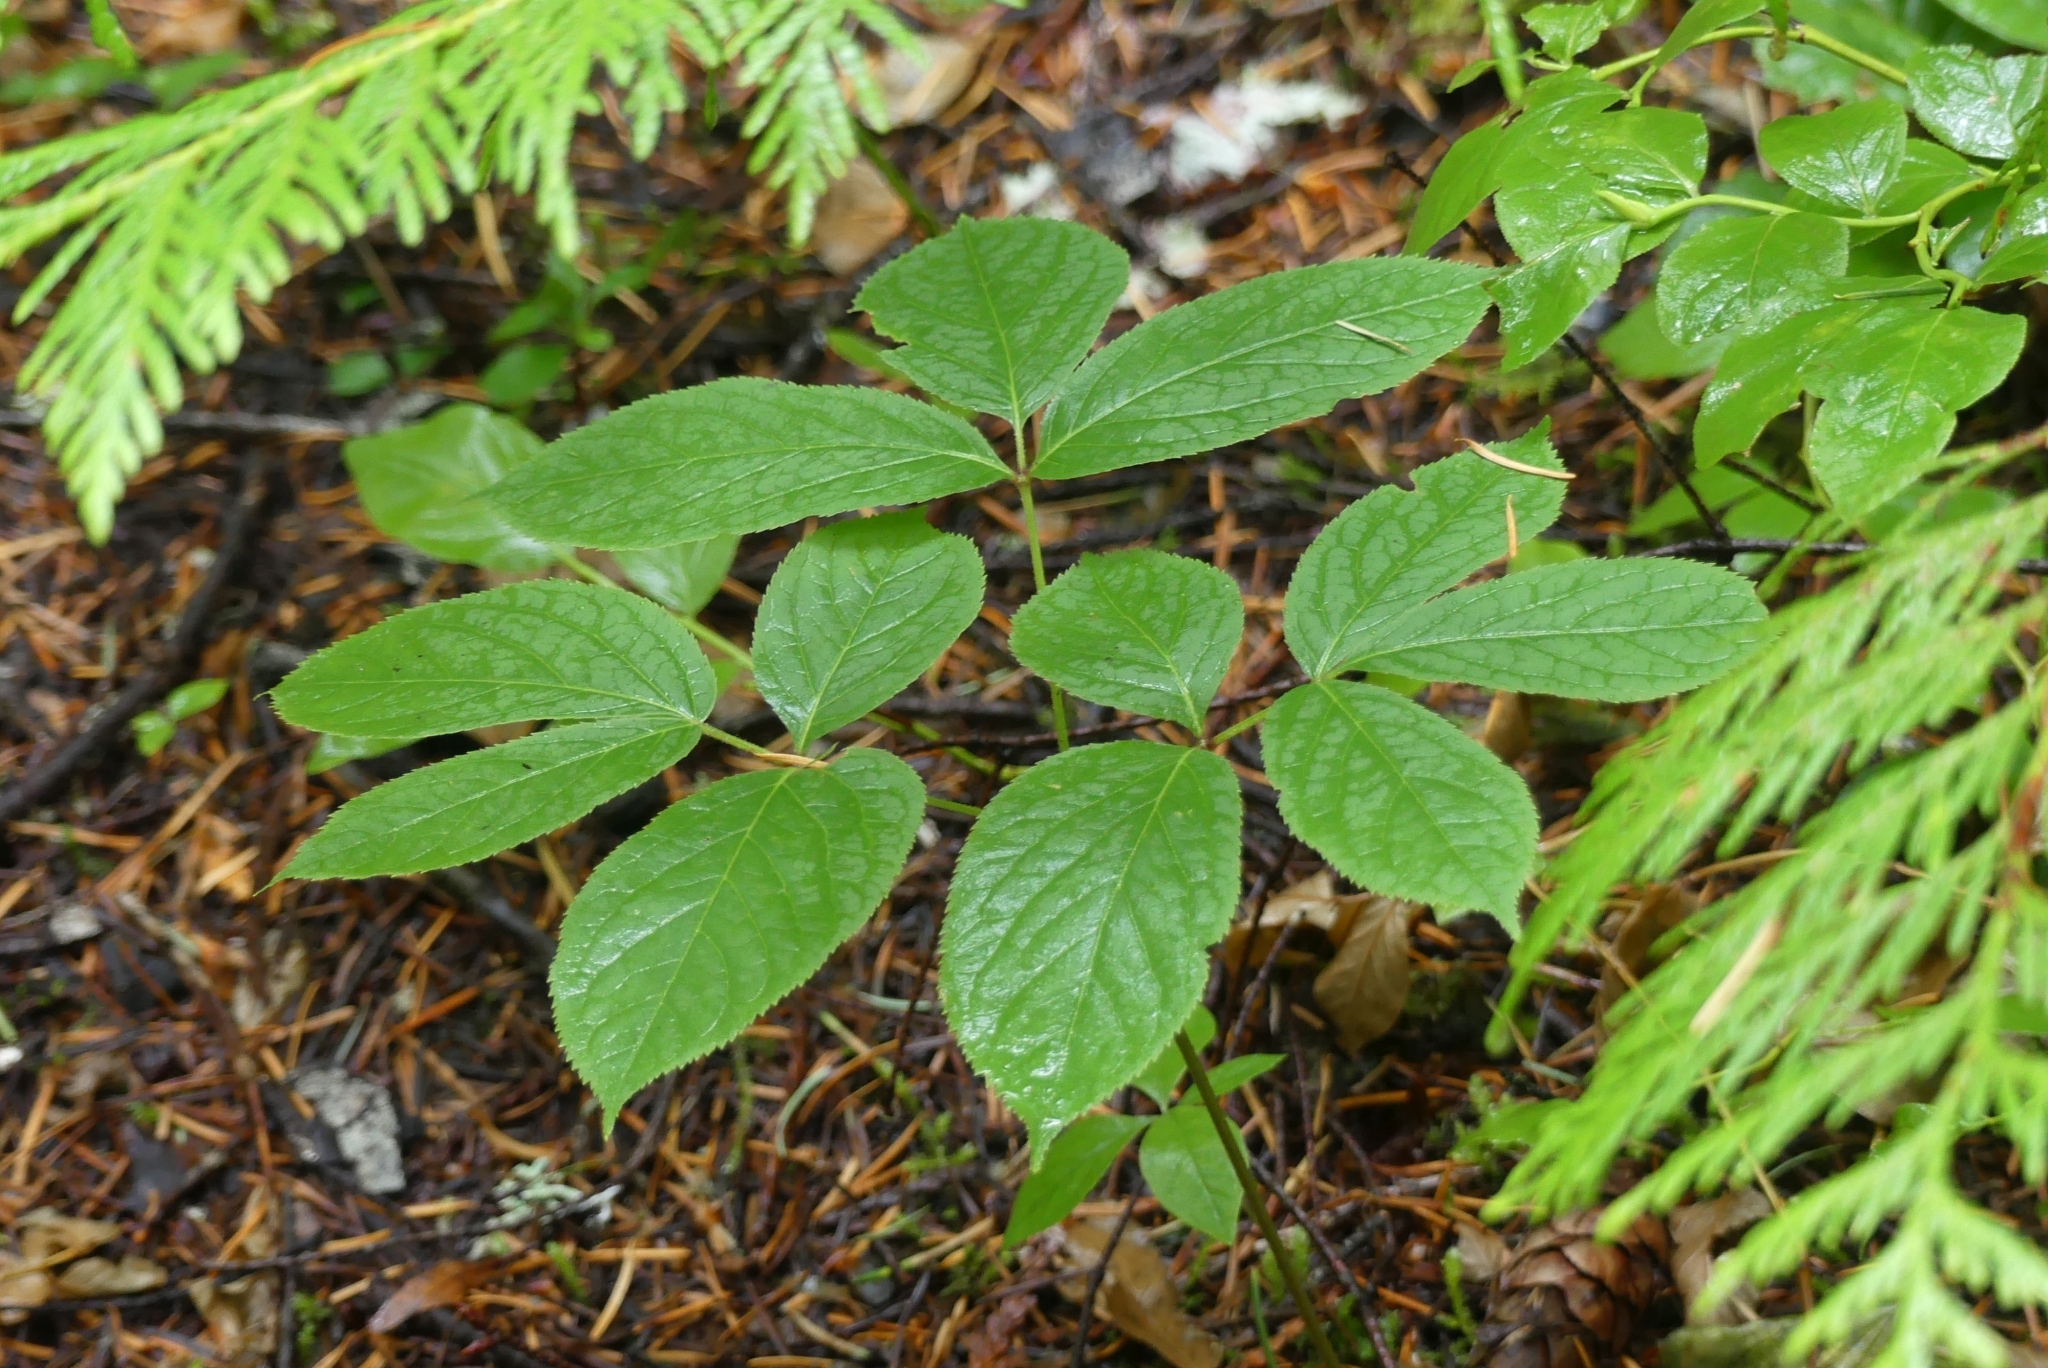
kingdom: Plantae
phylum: Tracheophyta
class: Magnoliopsida
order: Apiales
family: Araliaceae
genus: Aralia
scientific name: Aralia nudicaulis
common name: Wild sarsaparilla
